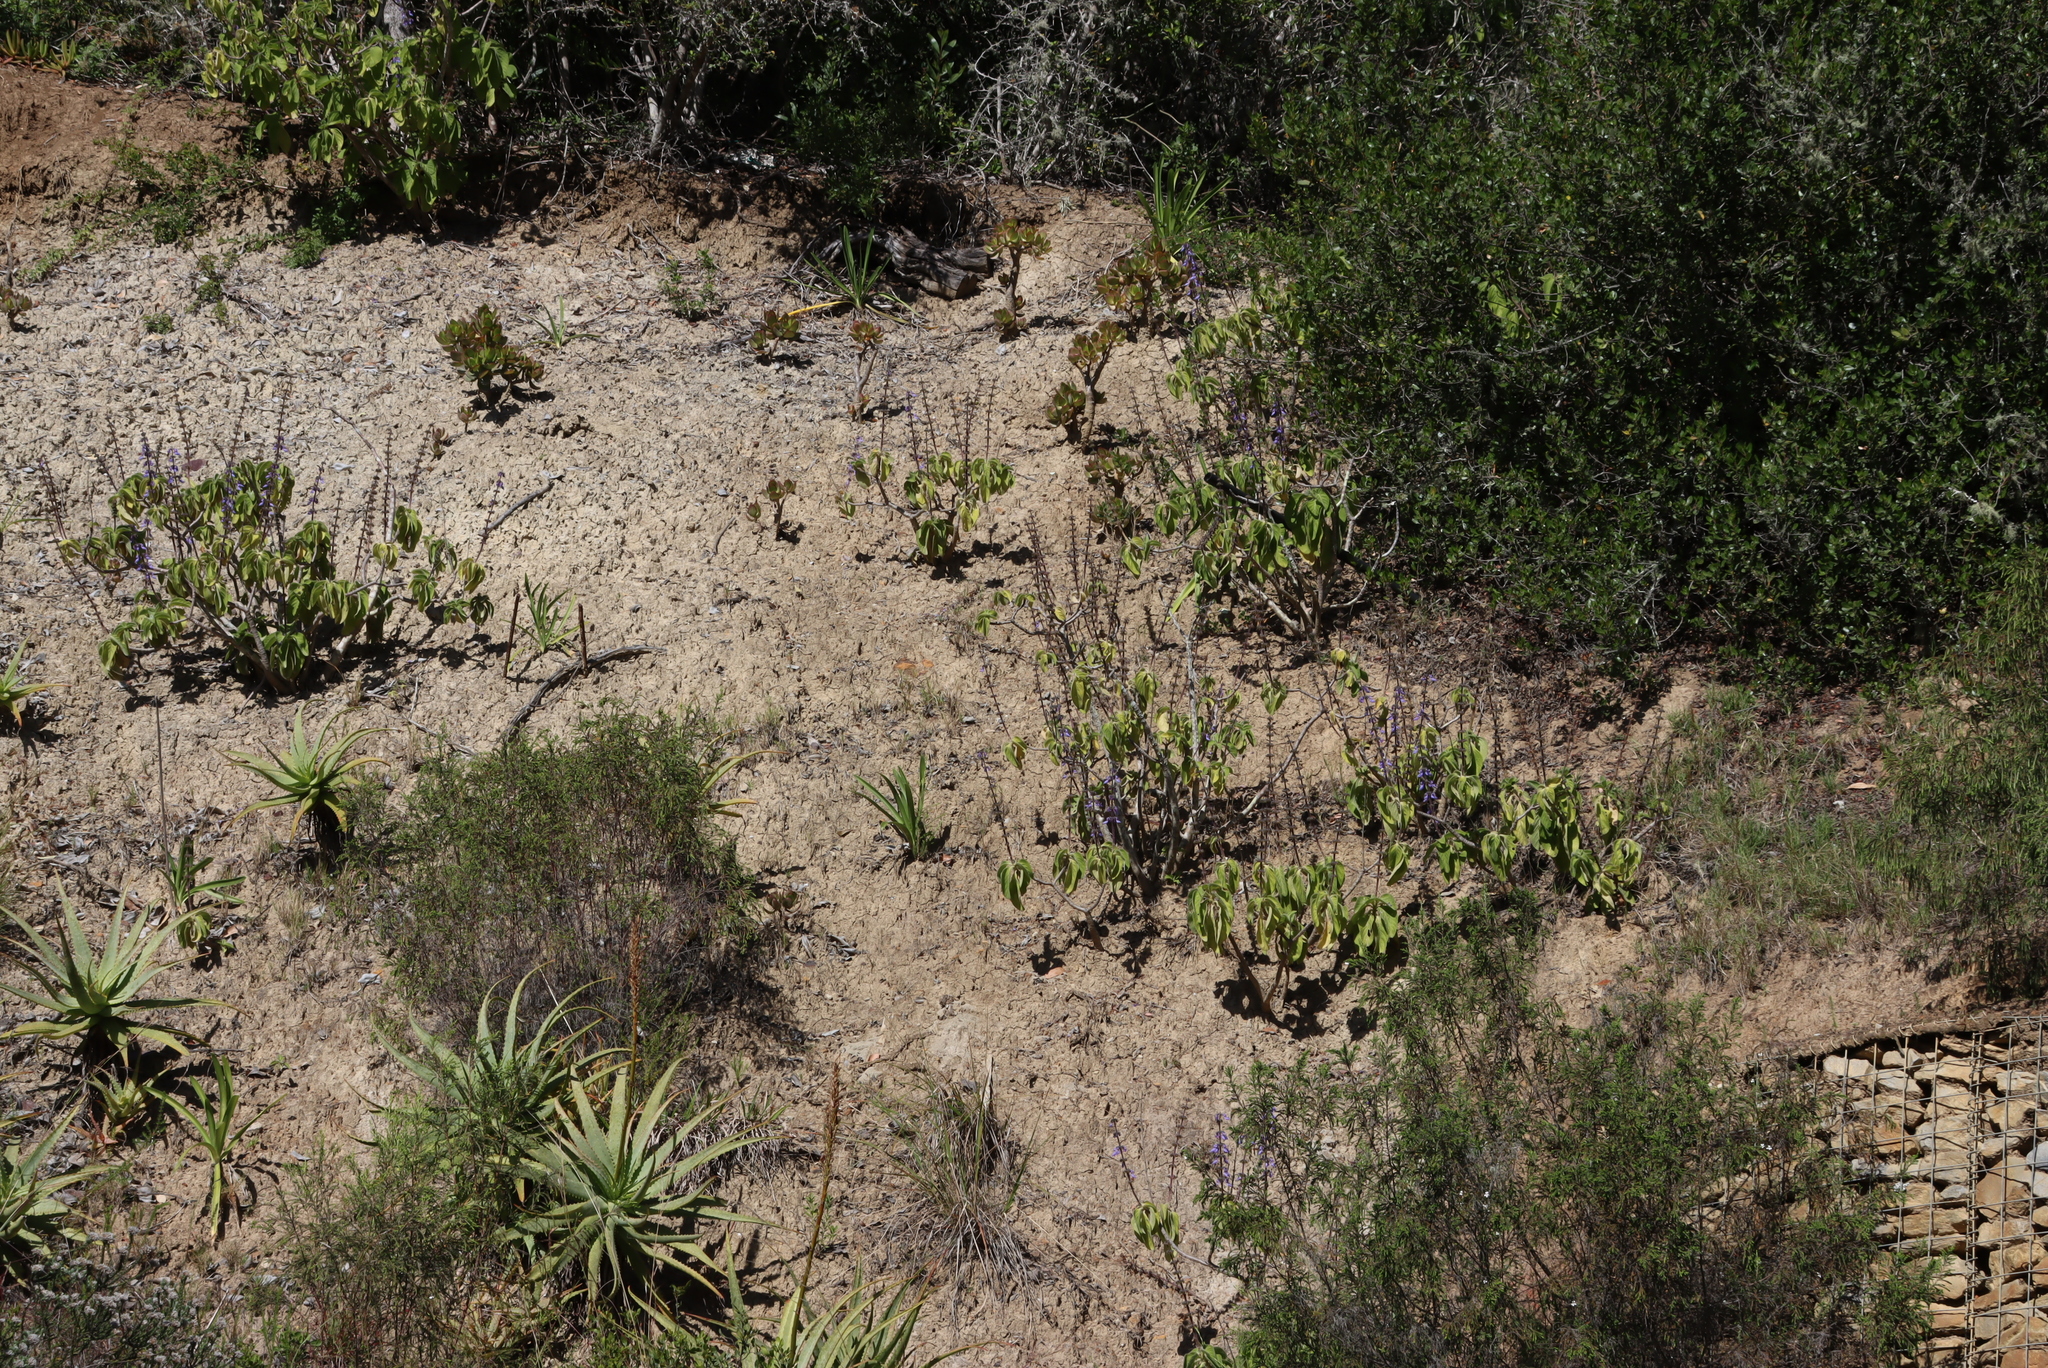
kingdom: Plantae
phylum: Tracheophyta
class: Liliopsida
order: Asparagales
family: Orchidaceae
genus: Satyrium
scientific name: Satyrium parviflorum
